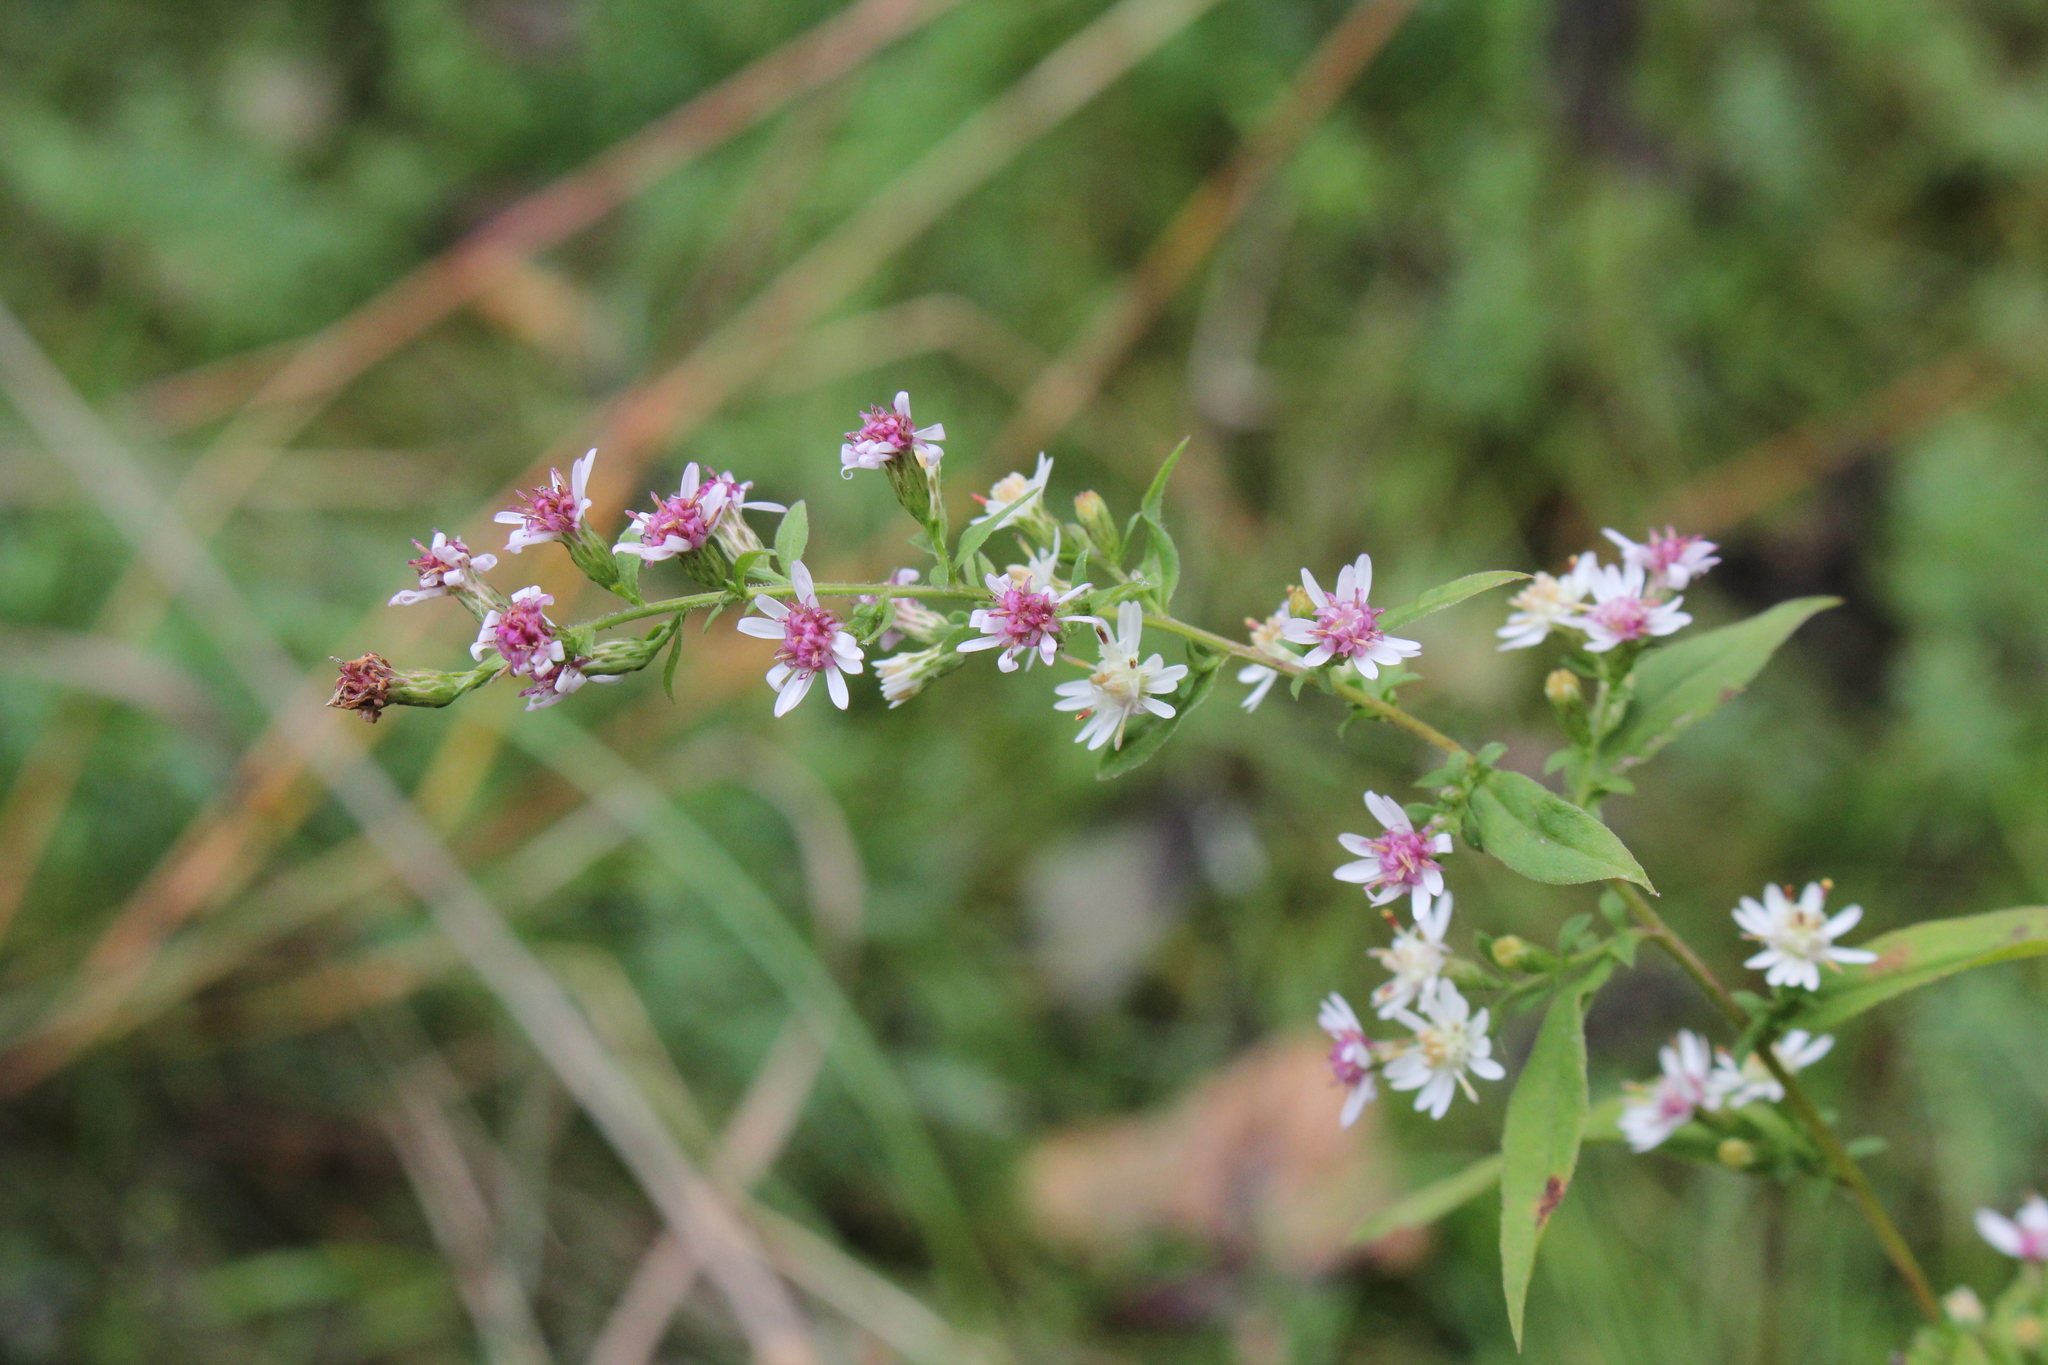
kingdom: Plantae
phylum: Tracheophyta
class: Magnoliopsida
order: Asterales
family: Asteraceae
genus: Symphyotrichum
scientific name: Symphyotrichum lateriflorum
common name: Calico aster
